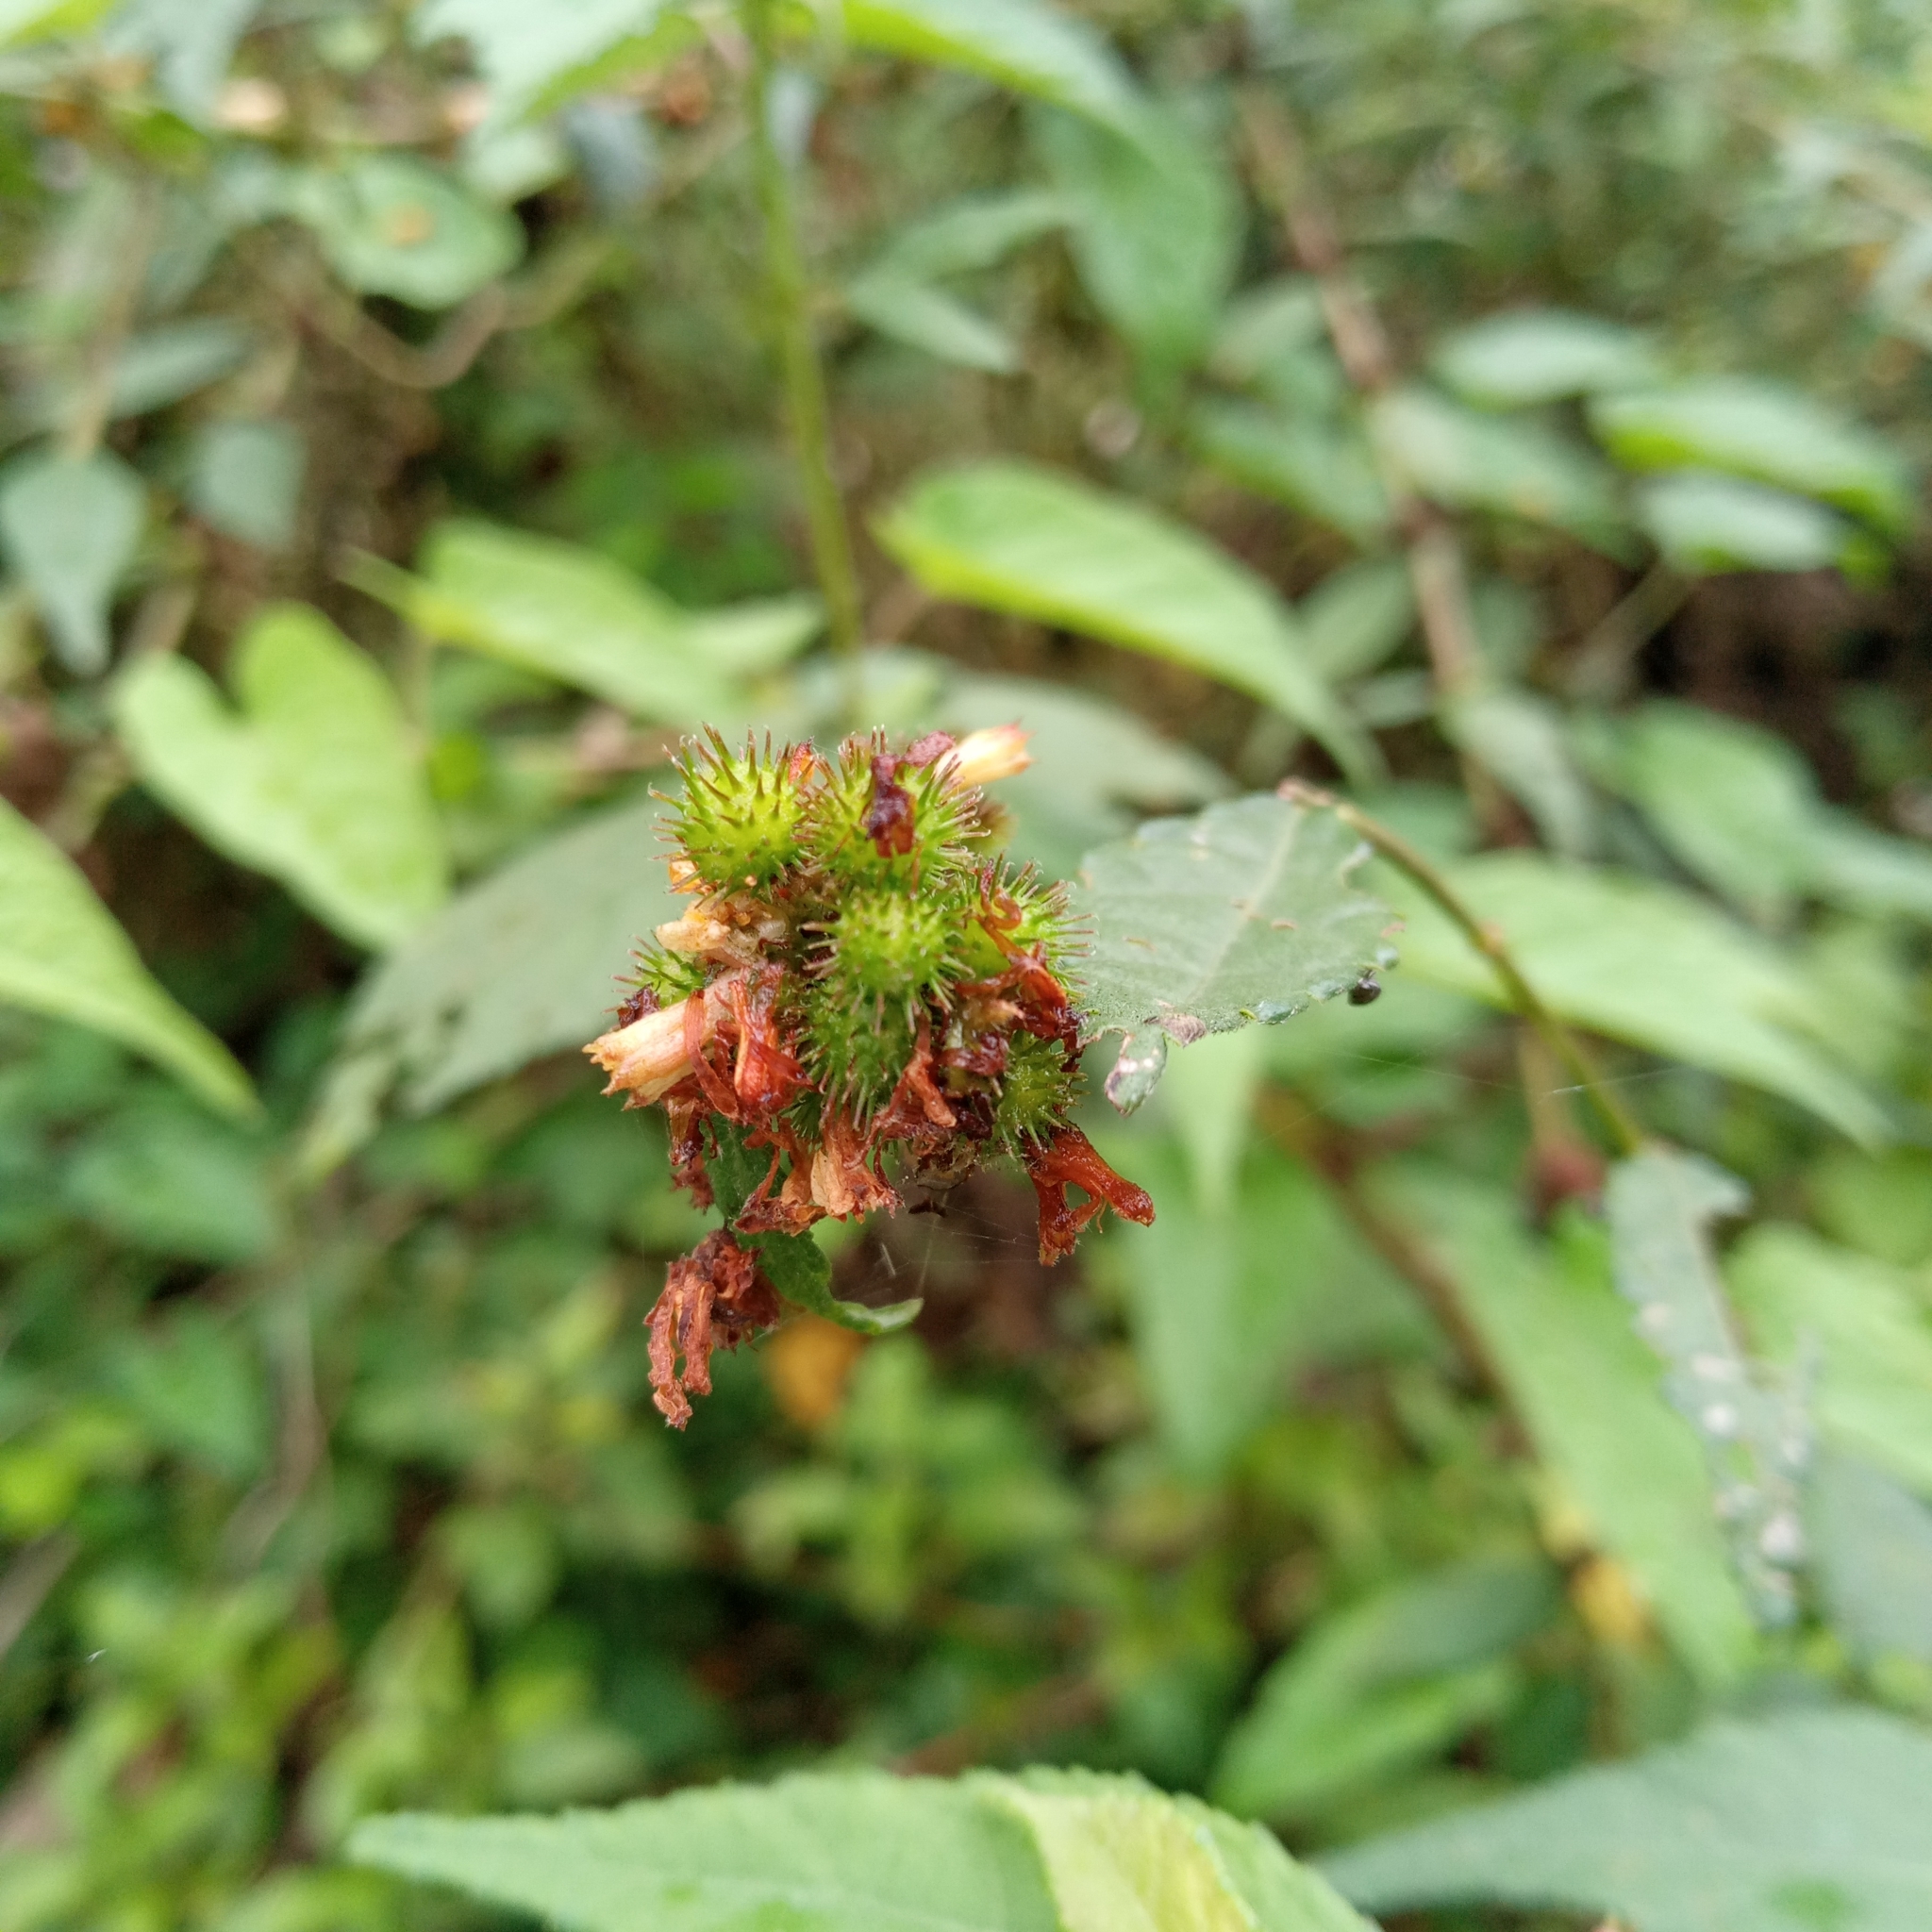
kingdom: Plantae
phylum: Tracheophyta
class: Magnoliopsida
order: Malvales
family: Malvaceae
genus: Triumfetta
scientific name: Triumfetta pilosa
